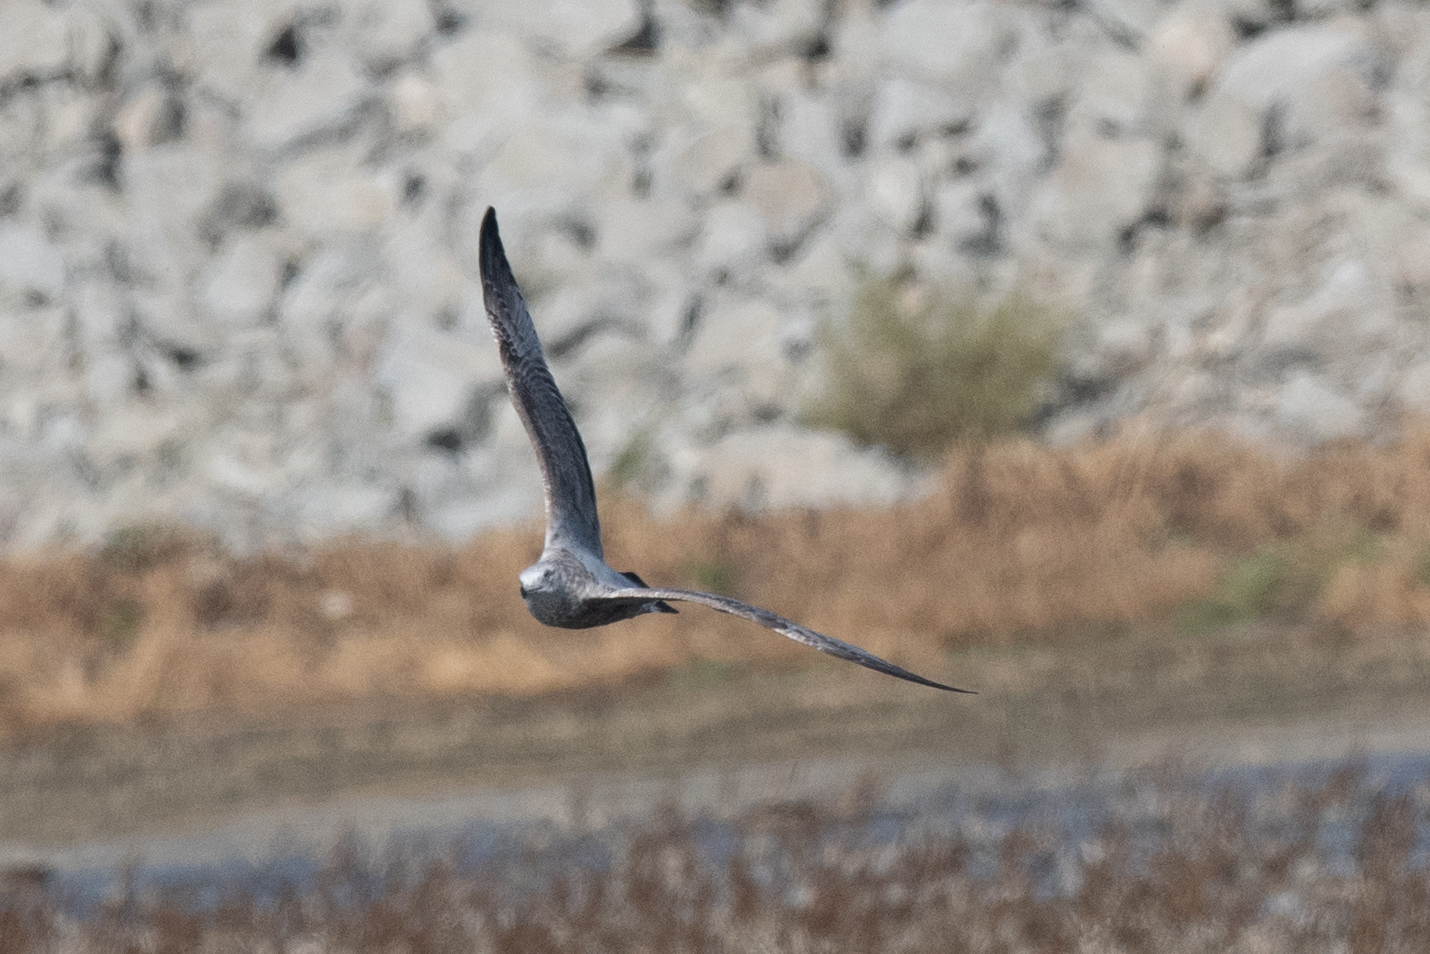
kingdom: Animalia
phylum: Chordata
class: Aves
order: Charadriiformes
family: Laridae
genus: Larus
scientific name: Larus argentatus
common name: Herring gull
